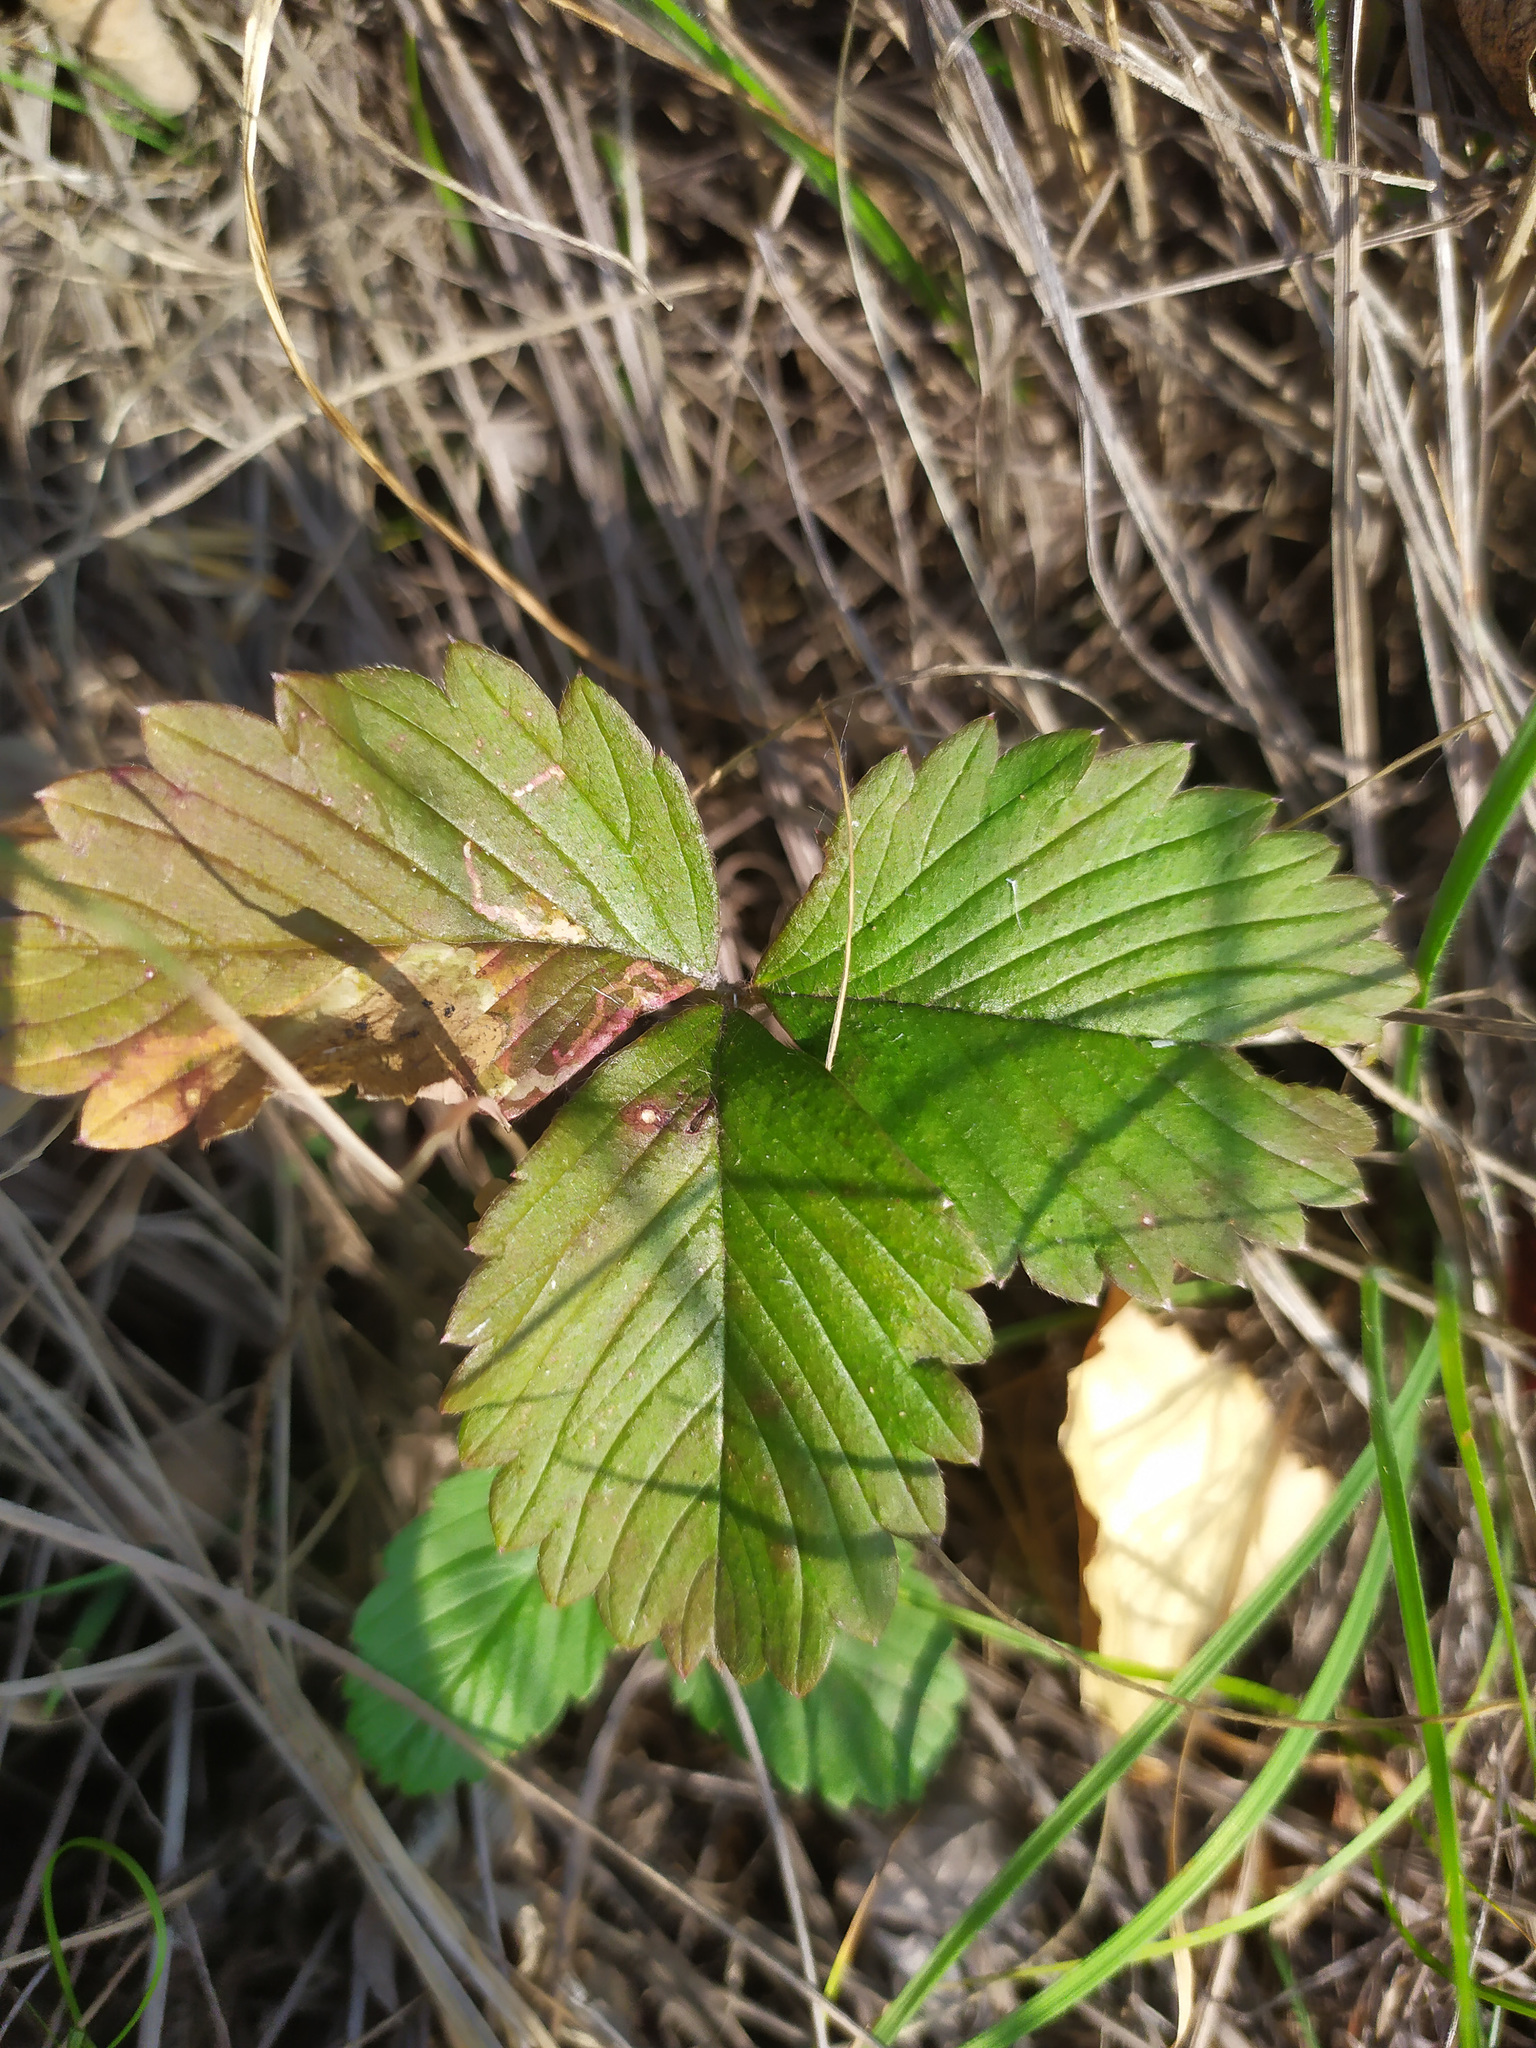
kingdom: Plantae
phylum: Tracheophyta
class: Magnoliopsida
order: Rosales
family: Rosaceae
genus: Fragaria
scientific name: Fragaria viridis
